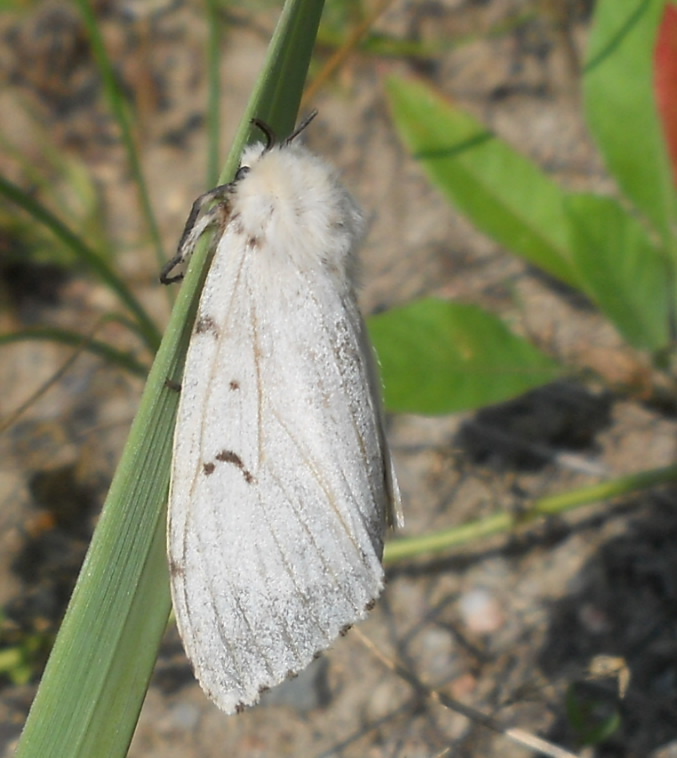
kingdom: Animalia
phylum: Arthropoda
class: Insecta
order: Lepidoptera
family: Erebidae
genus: Lymantria
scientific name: Lymantria dispar
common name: Gypsy moth
